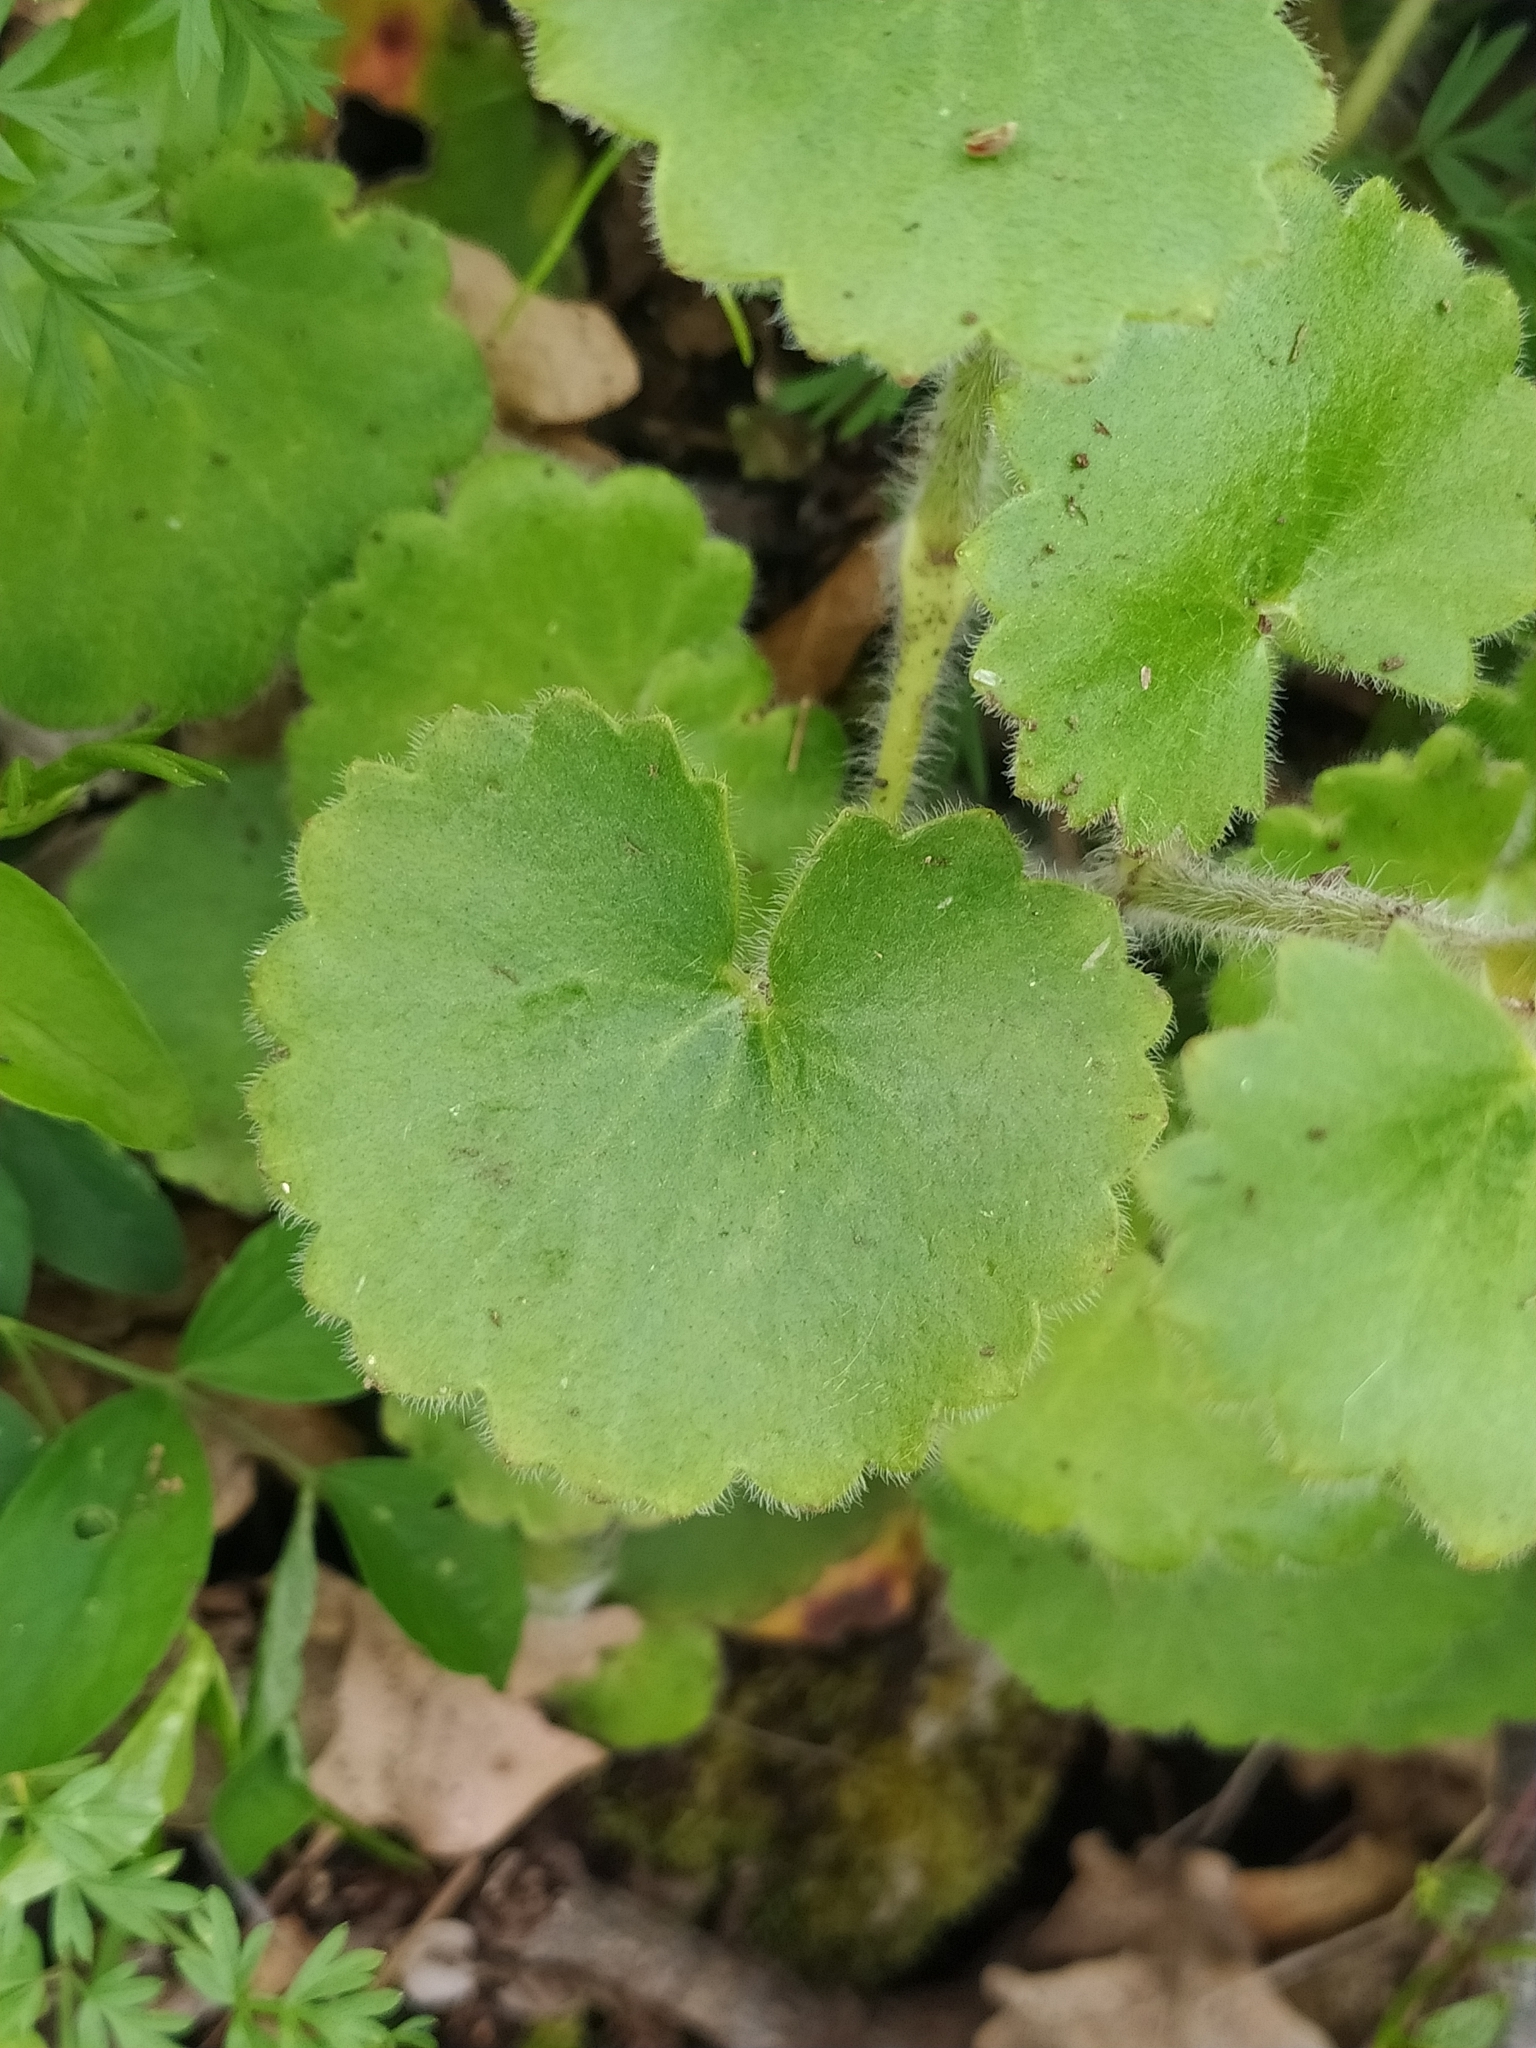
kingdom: Plantae
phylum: Tracheophyta
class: Magnoliopsida
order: Saxifragales
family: Saxifragaceae
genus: Saxifraga
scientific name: Saxifraga rotundifolia
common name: Round-leaved saxifrage
